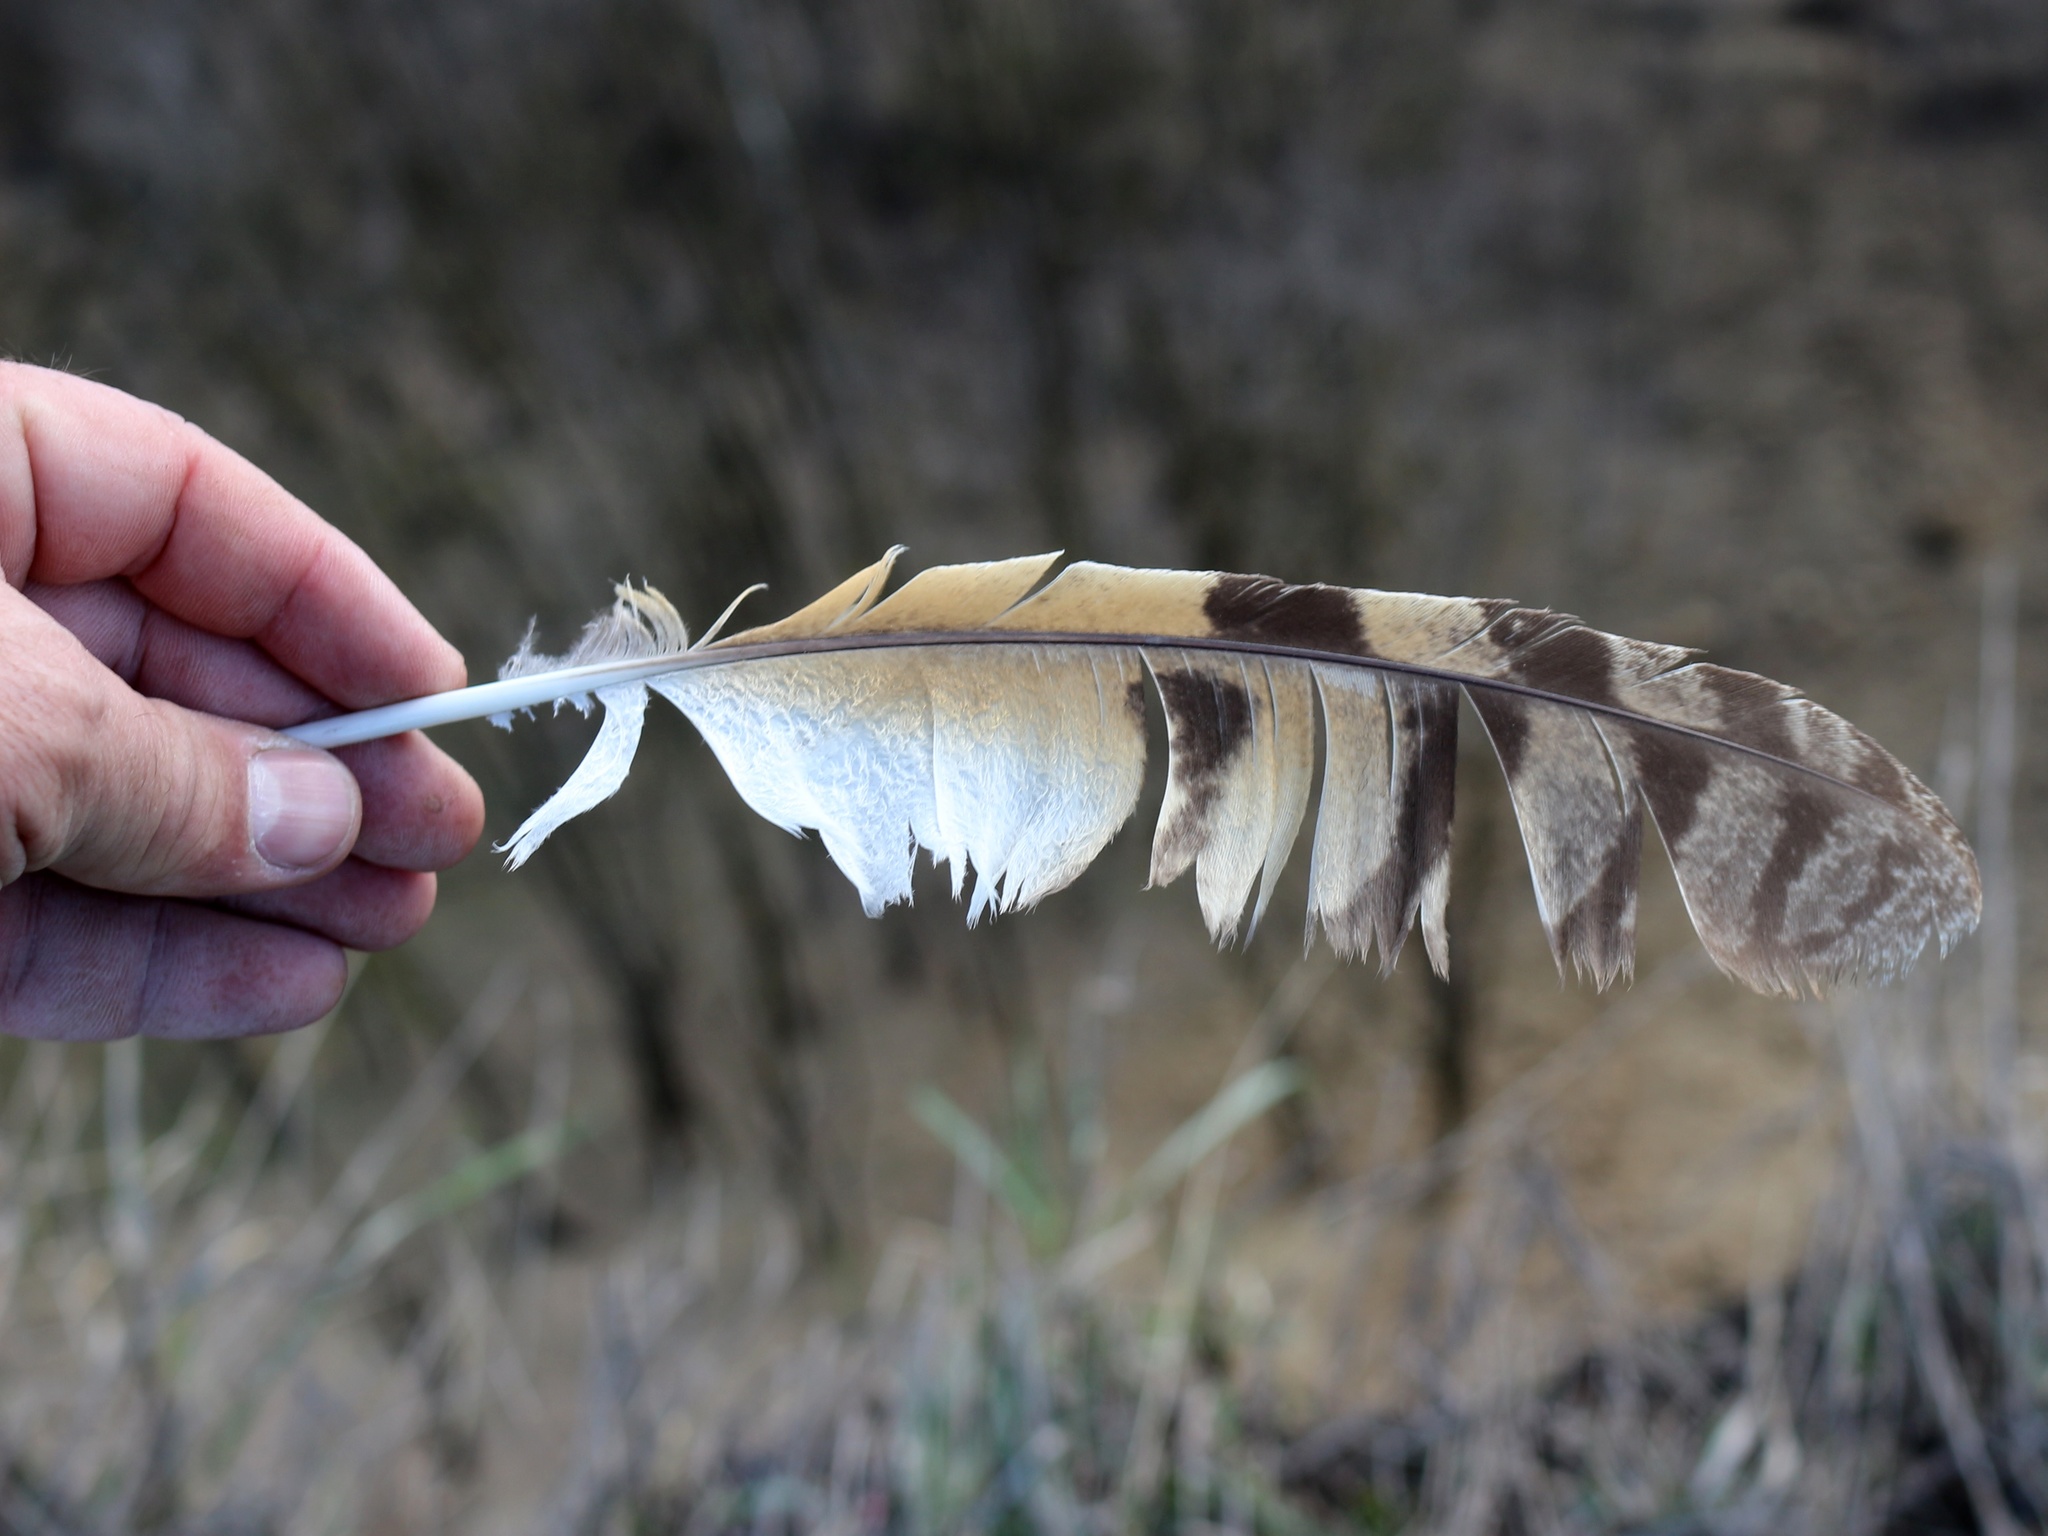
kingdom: Animalia
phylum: Chordata
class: Aves
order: Strigiformes
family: Strigidae
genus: Asio
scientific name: Asio otus
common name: Long-eared owl
